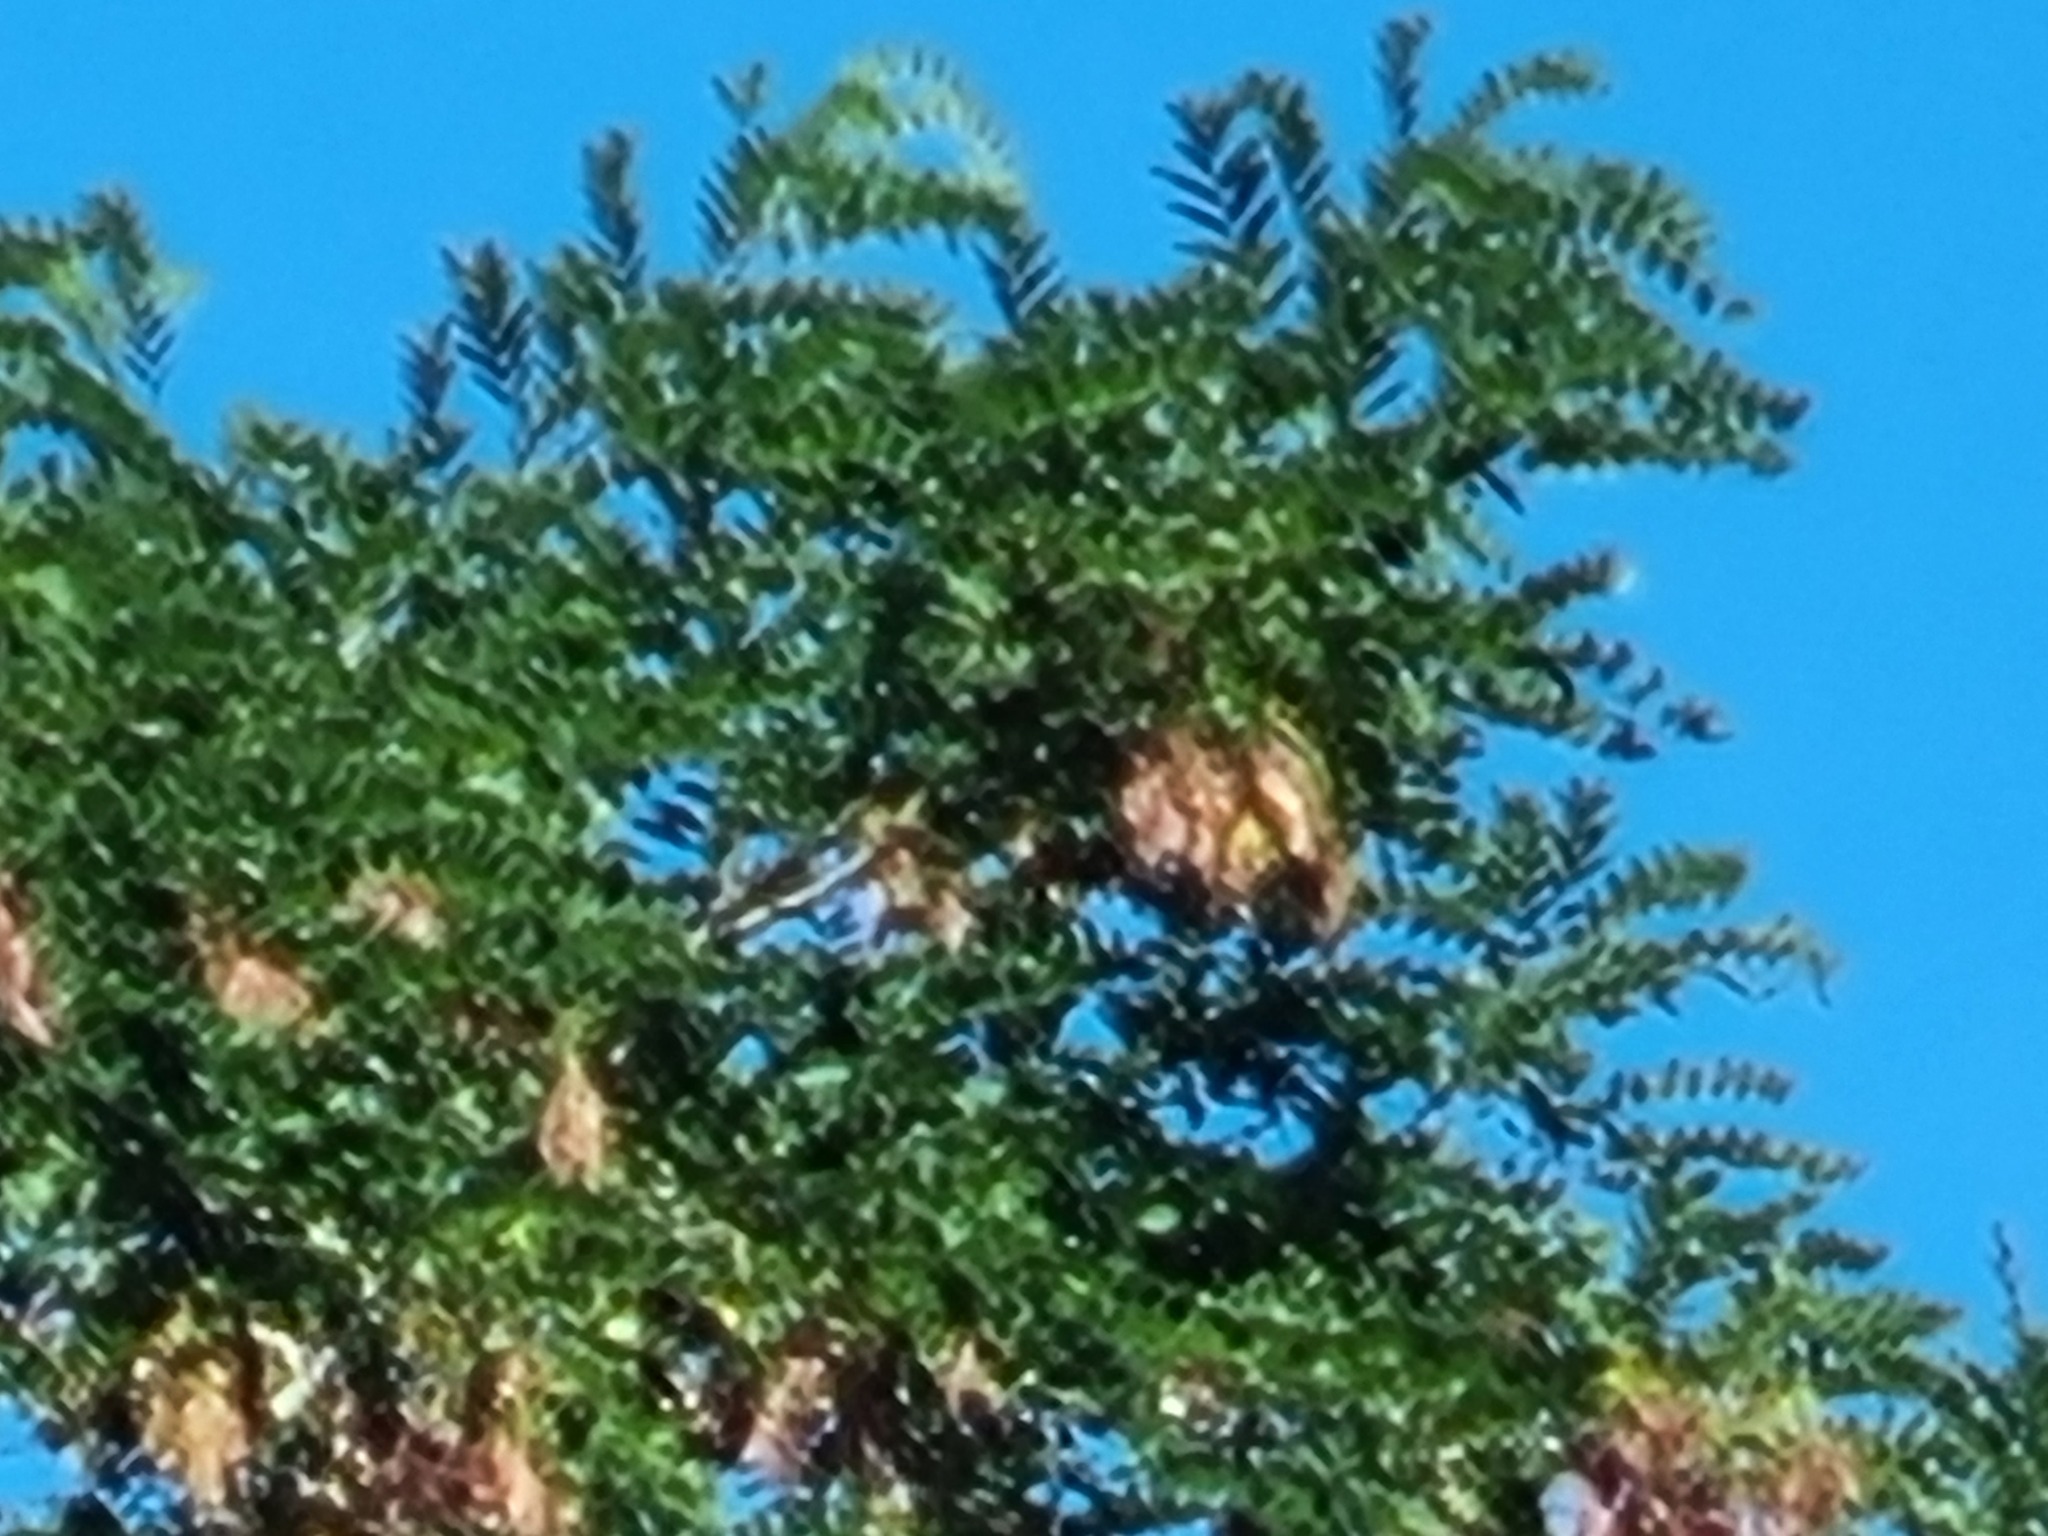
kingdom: Animalia
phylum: Arthropoda
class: Insecta
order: Hymenoptera
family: Vespidae
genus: Vespa
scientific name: Vespa velutina
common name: Asian hornet
